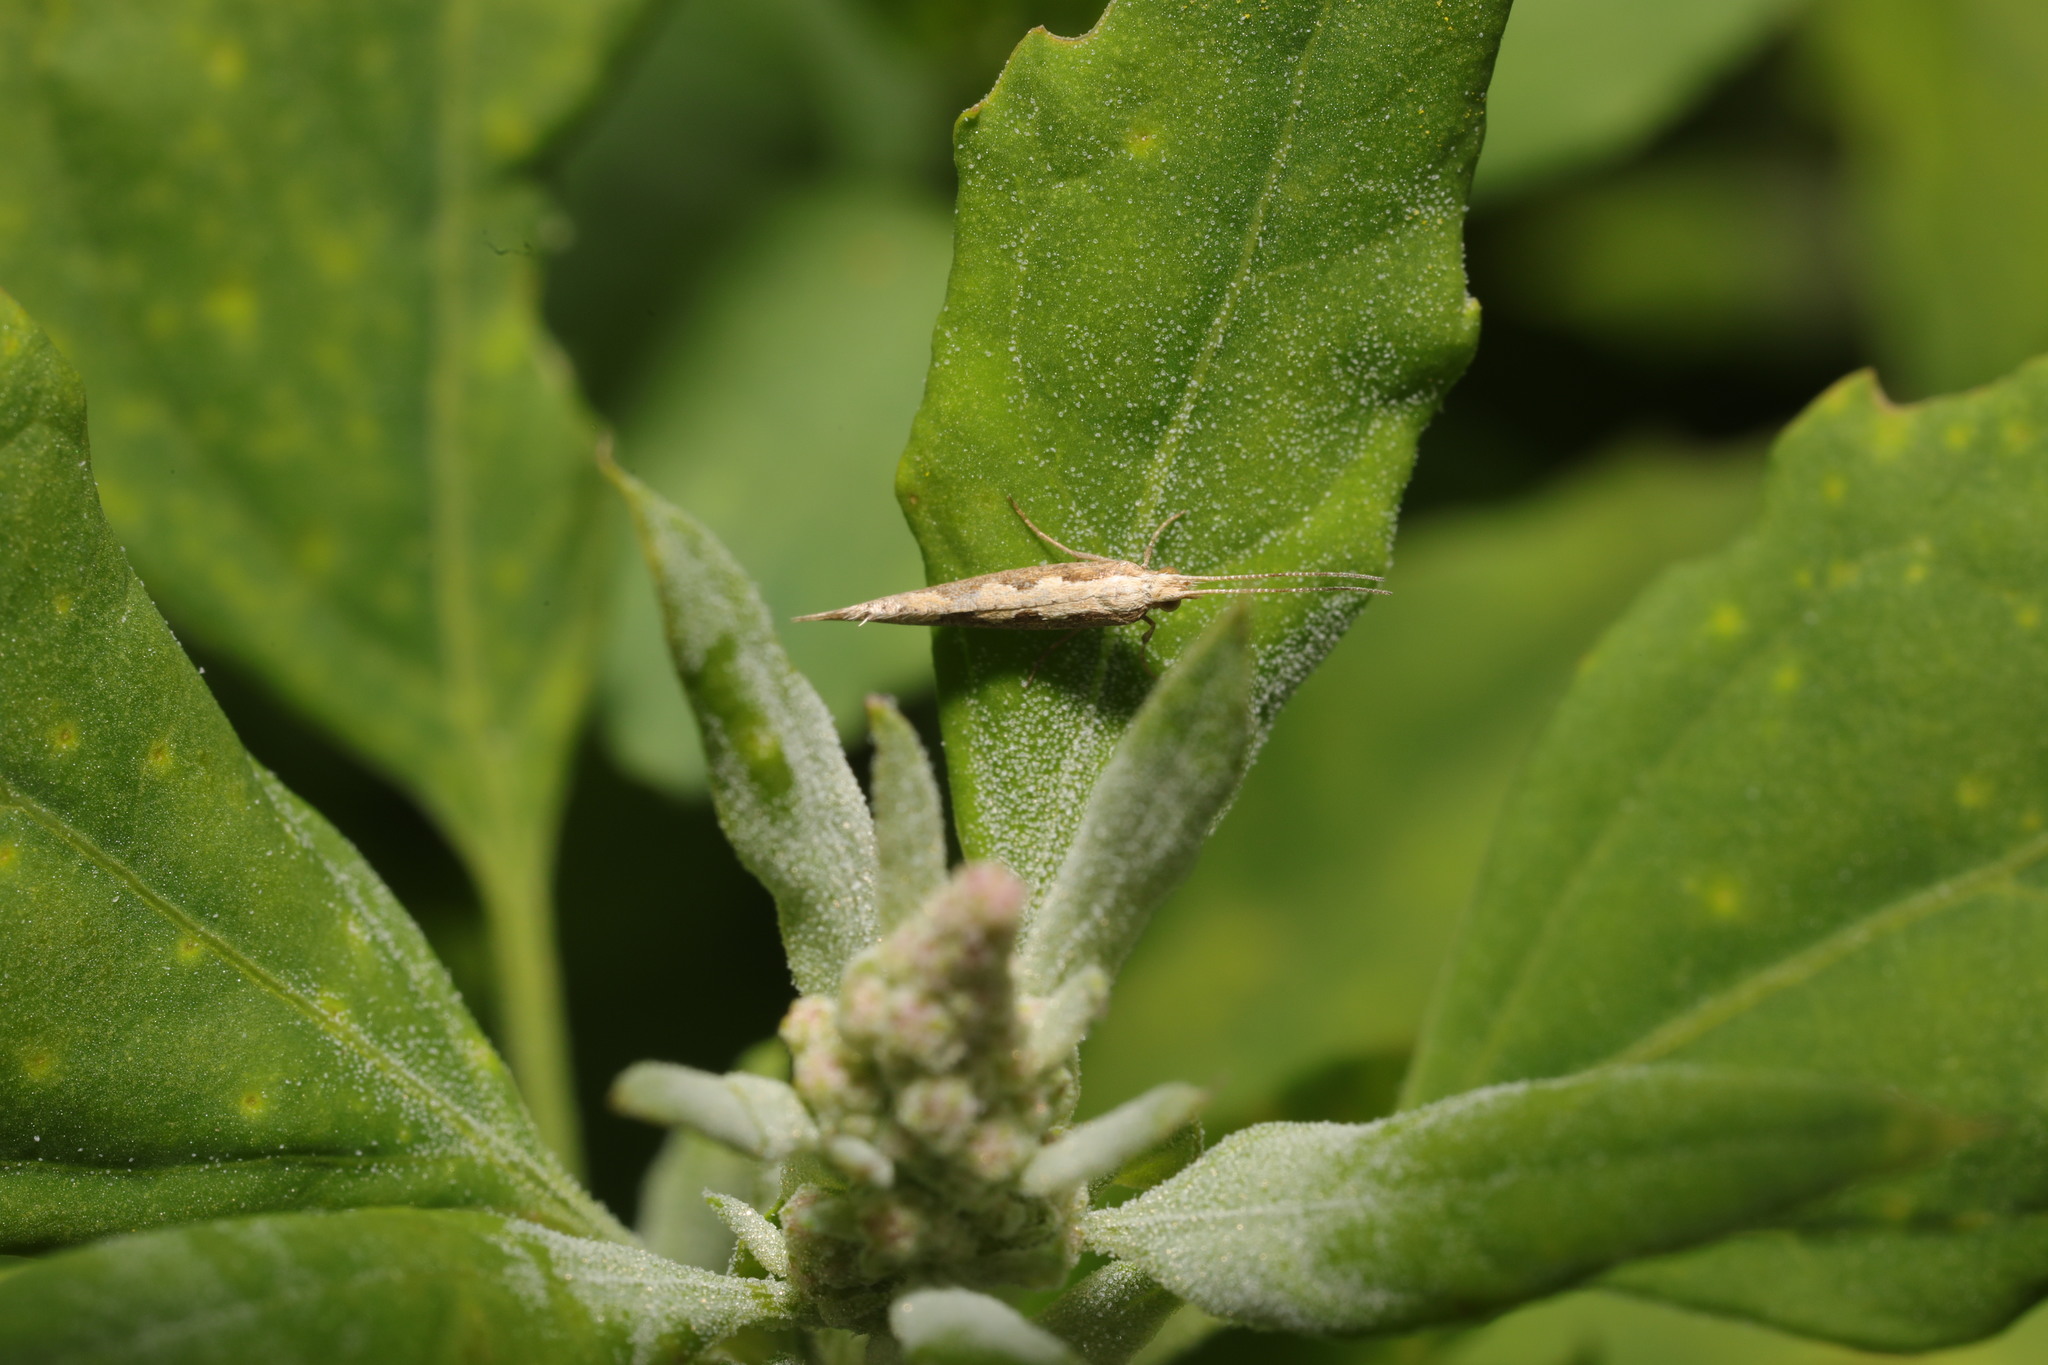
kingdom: Animalia
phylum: Arthropoda
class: Insecta
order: Lepidoptera
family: Plutellidae
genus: Plutella
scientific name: Plutella xylostella
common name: Diamond-back moth
